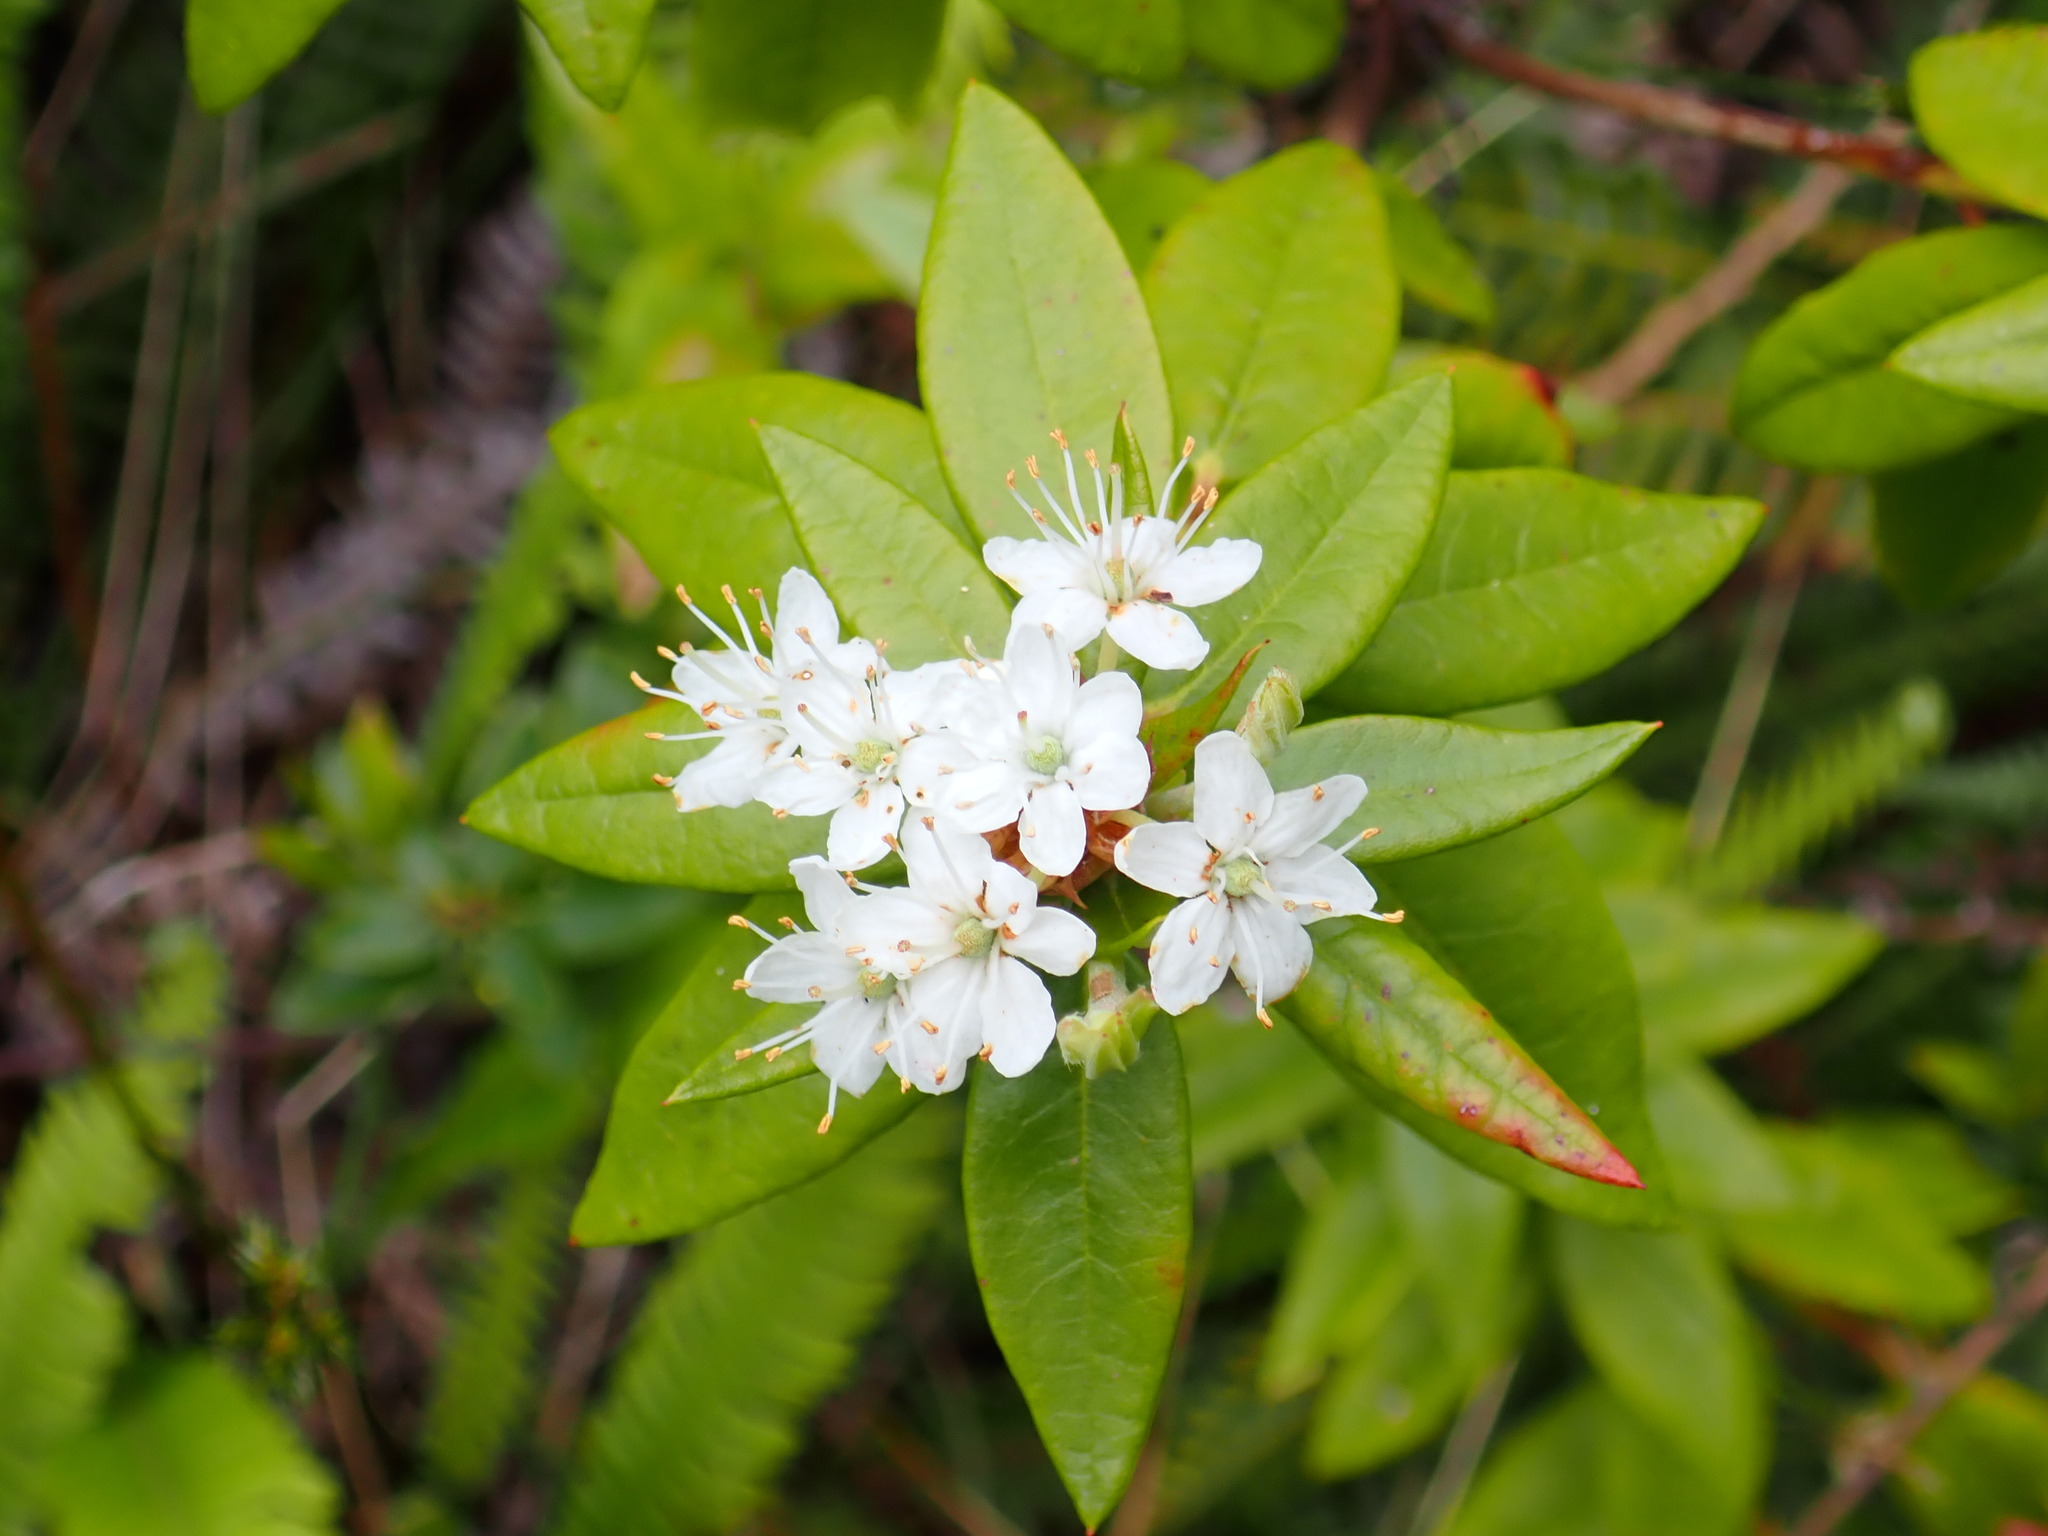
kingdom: Plantae
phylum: Tracheophyta
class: Magnoliopsida
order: Ericales
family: Ericaceae
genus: Rhododendron
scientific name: Rhododendron columbianum
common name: Western labrador tea
